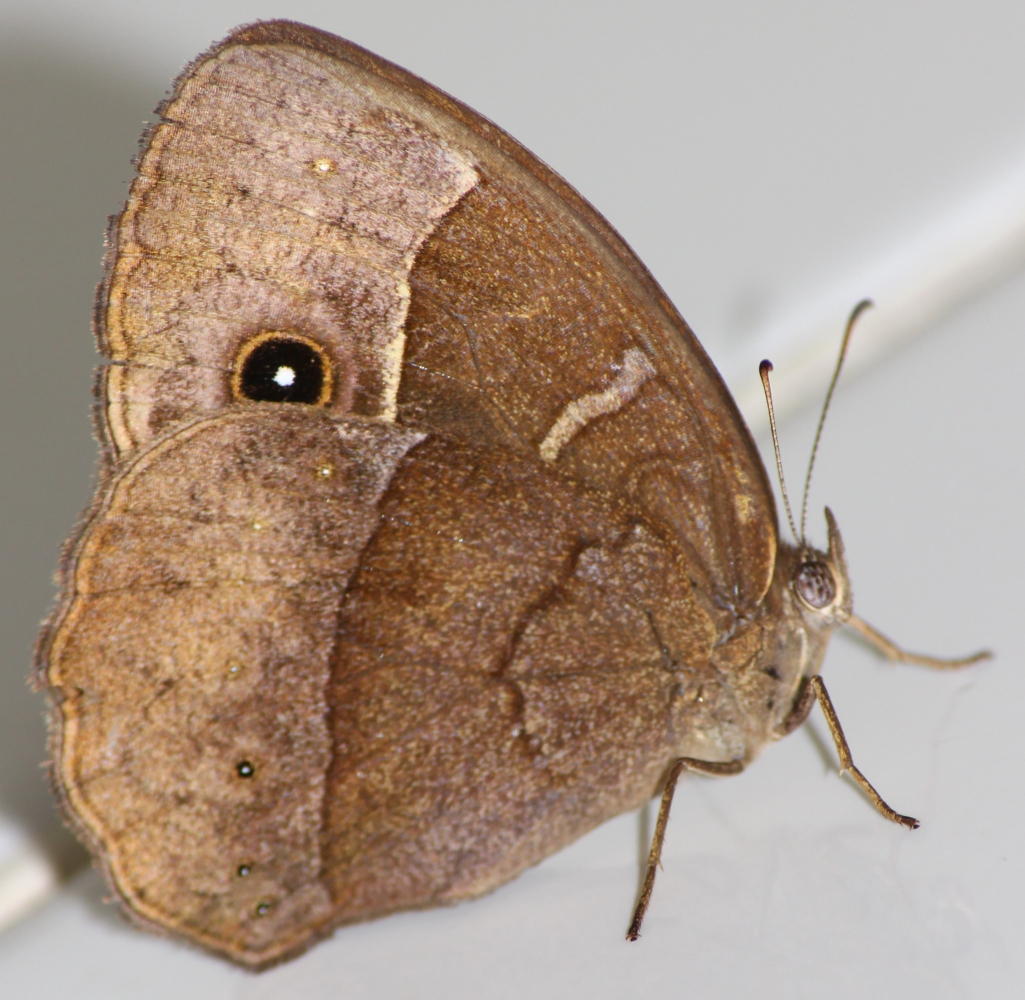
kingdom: Animalia
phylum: Arthropoda
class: Insecta
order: Lepidoptera
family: Nymphalidae
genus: Mycalesis
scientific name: Mycalesis rhacotis
